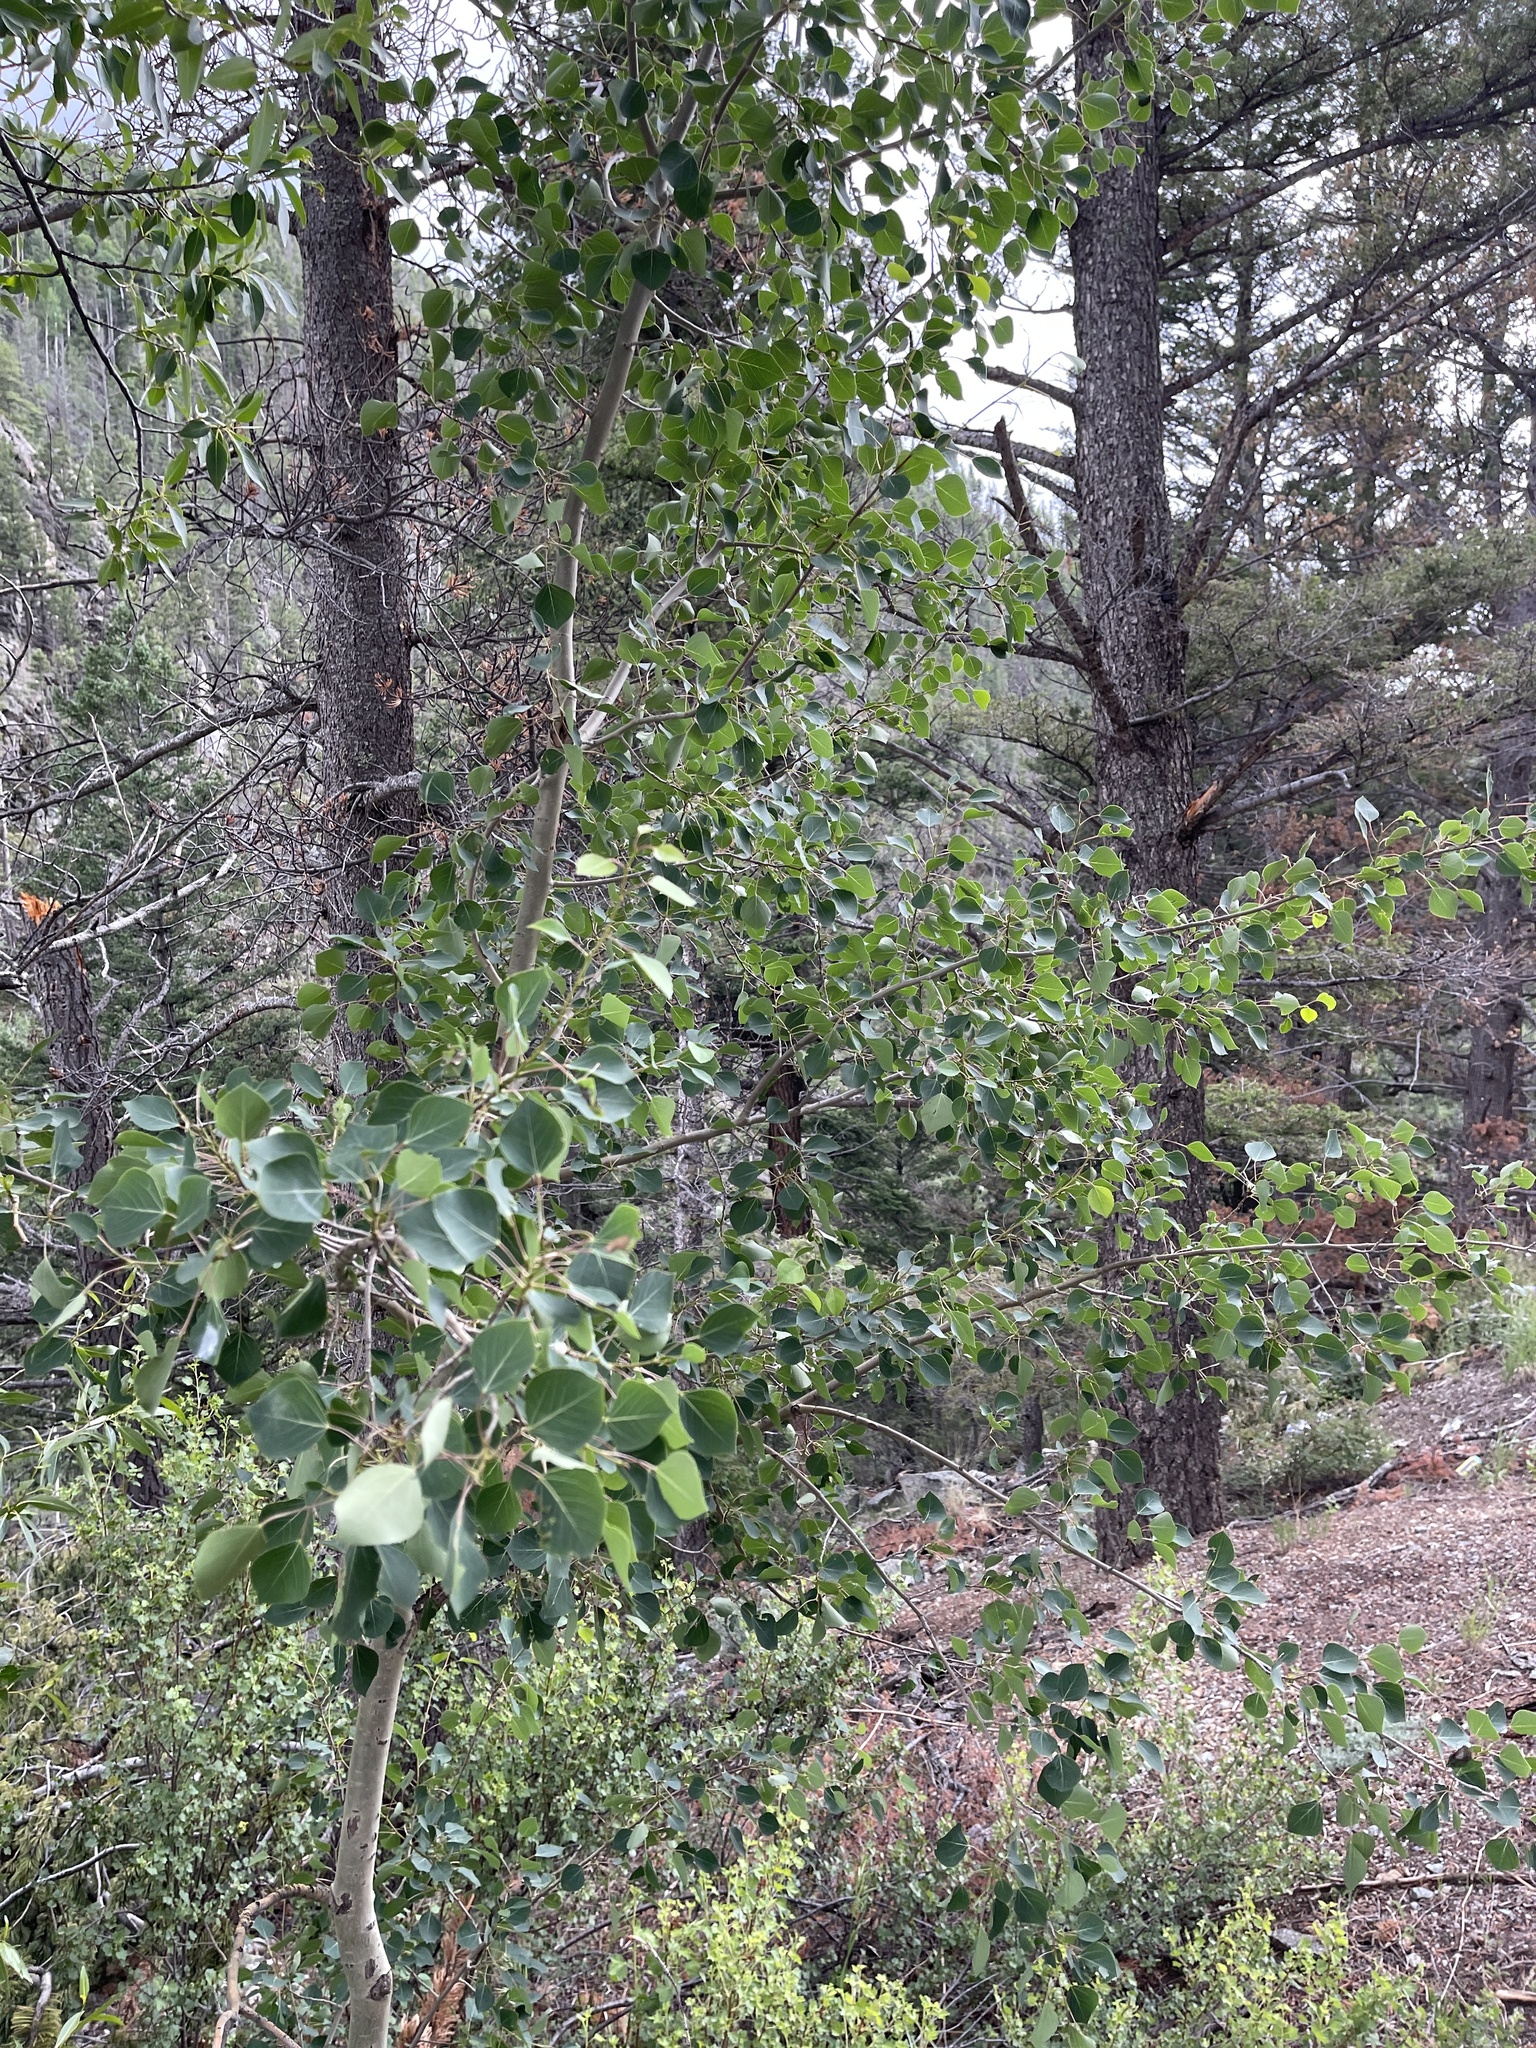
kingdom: Plantae
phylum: Tracheophyta
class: Magnoliopsida
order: Malpighiales
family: Salicaceae
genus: Populus
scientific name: Populus tremuloides
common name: Quaking aspen
